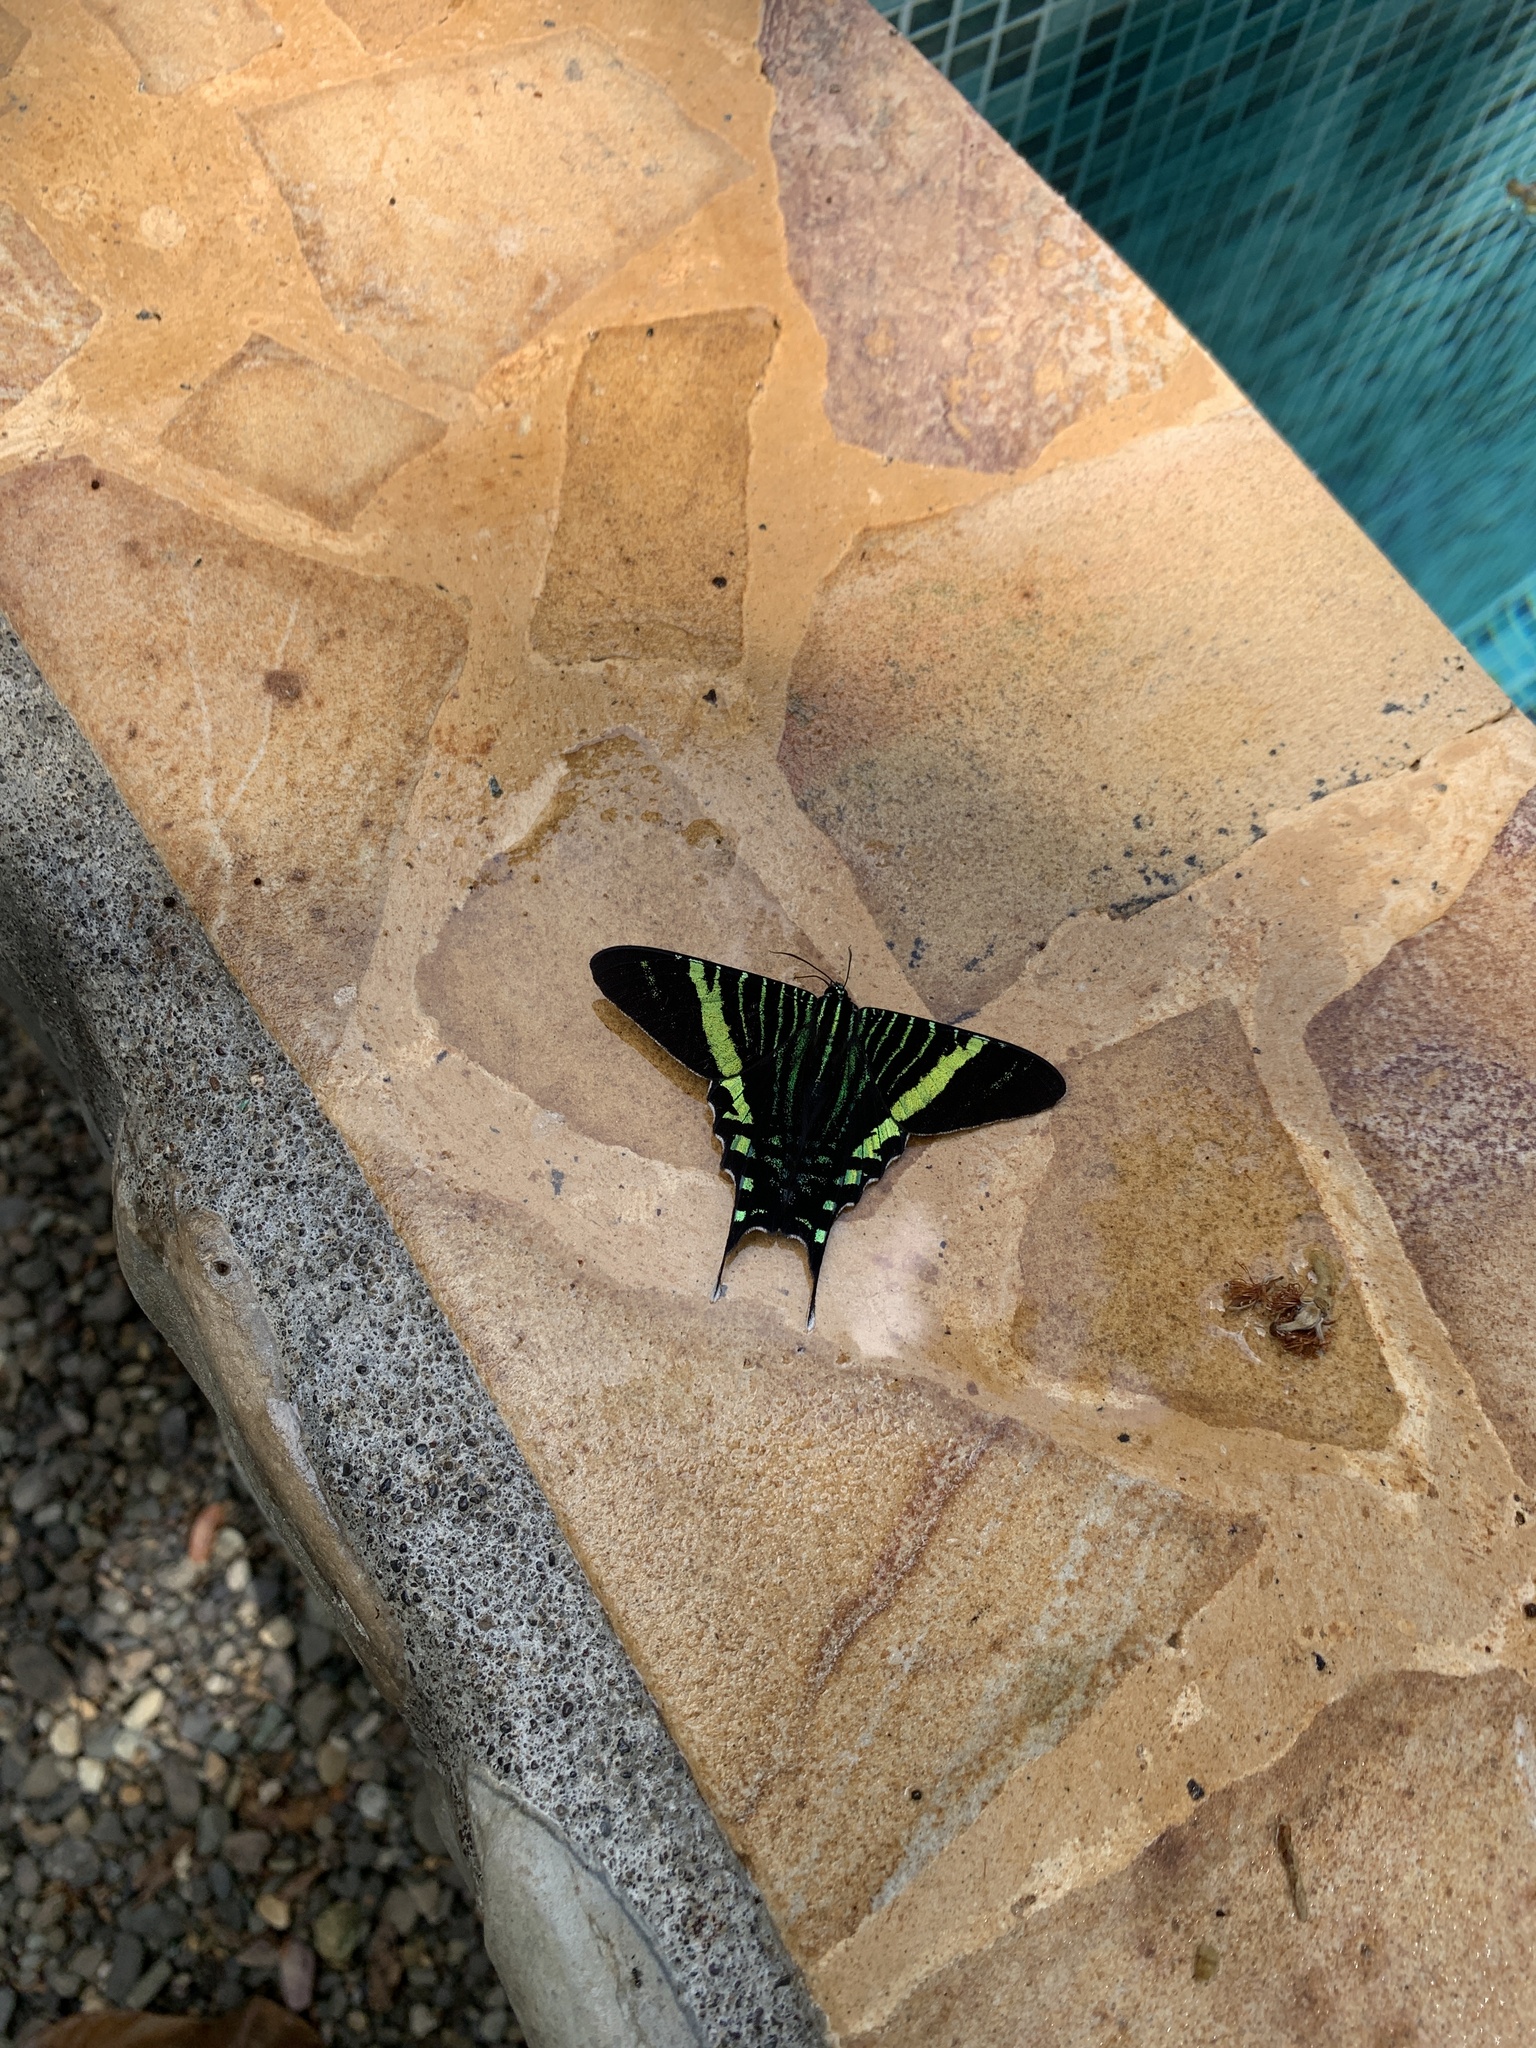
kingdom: Animalia
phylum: Arthropoda
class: Insecta
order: Lepidoptera
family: Uraniidae
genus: Urania
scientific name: Urania fulgens
